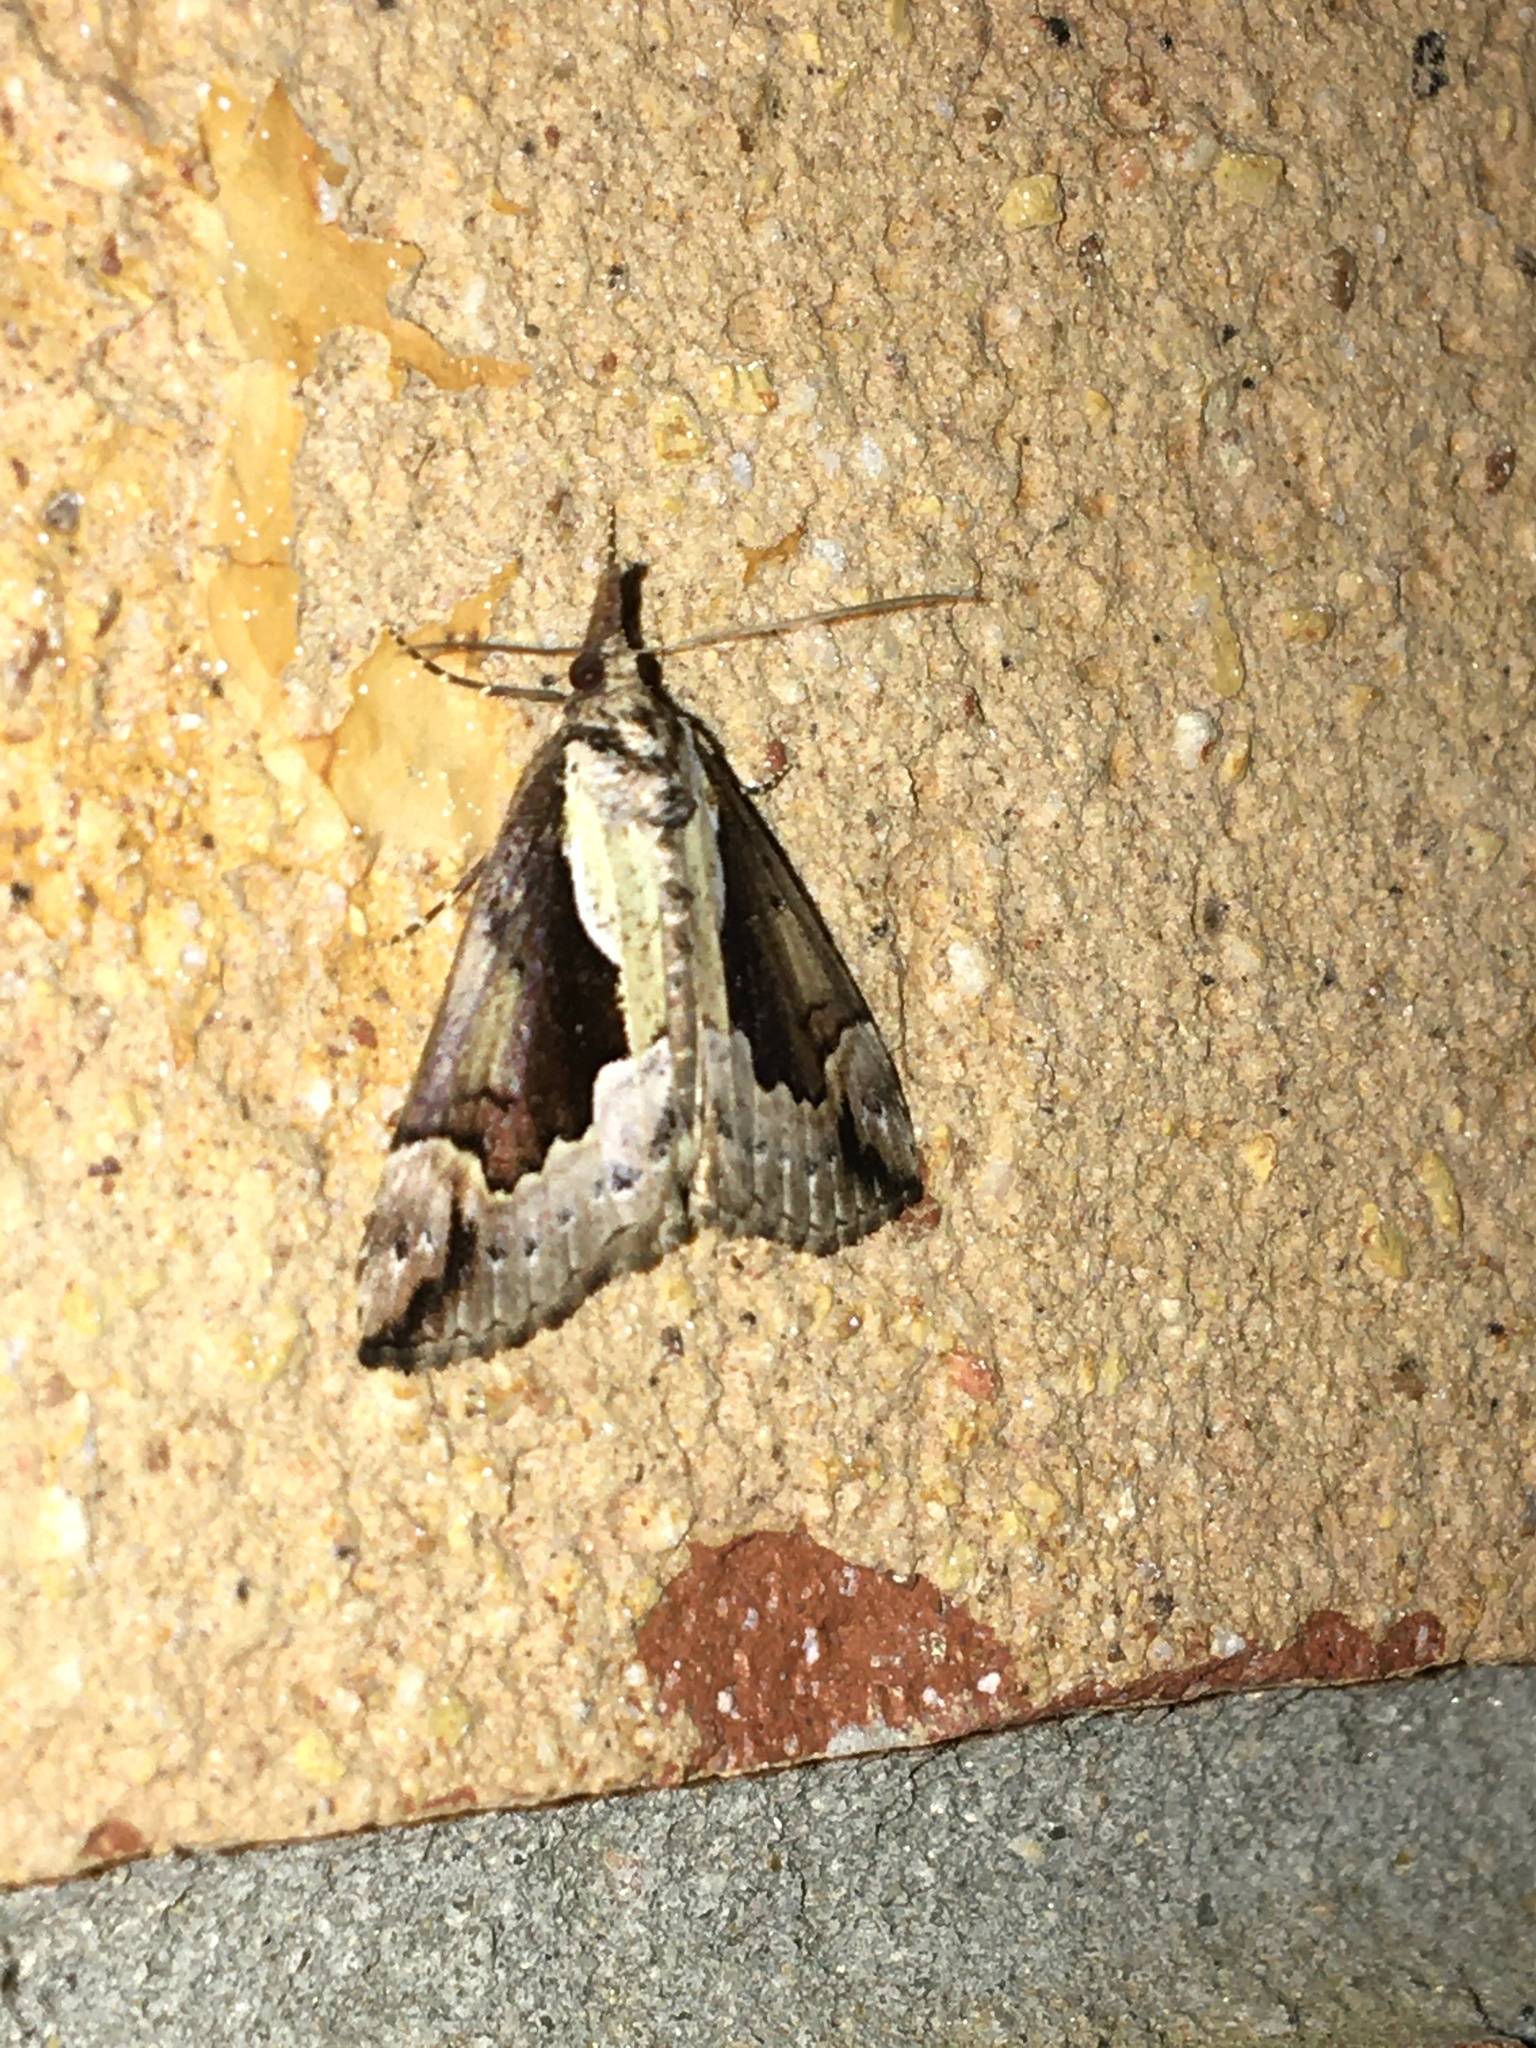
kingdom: Animalia
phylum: Arthropoda
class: Insecta
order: Lepidoptera
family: Erebidae
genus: Hypena
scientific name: Hypena baltimoralis
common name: Baltimore snout
